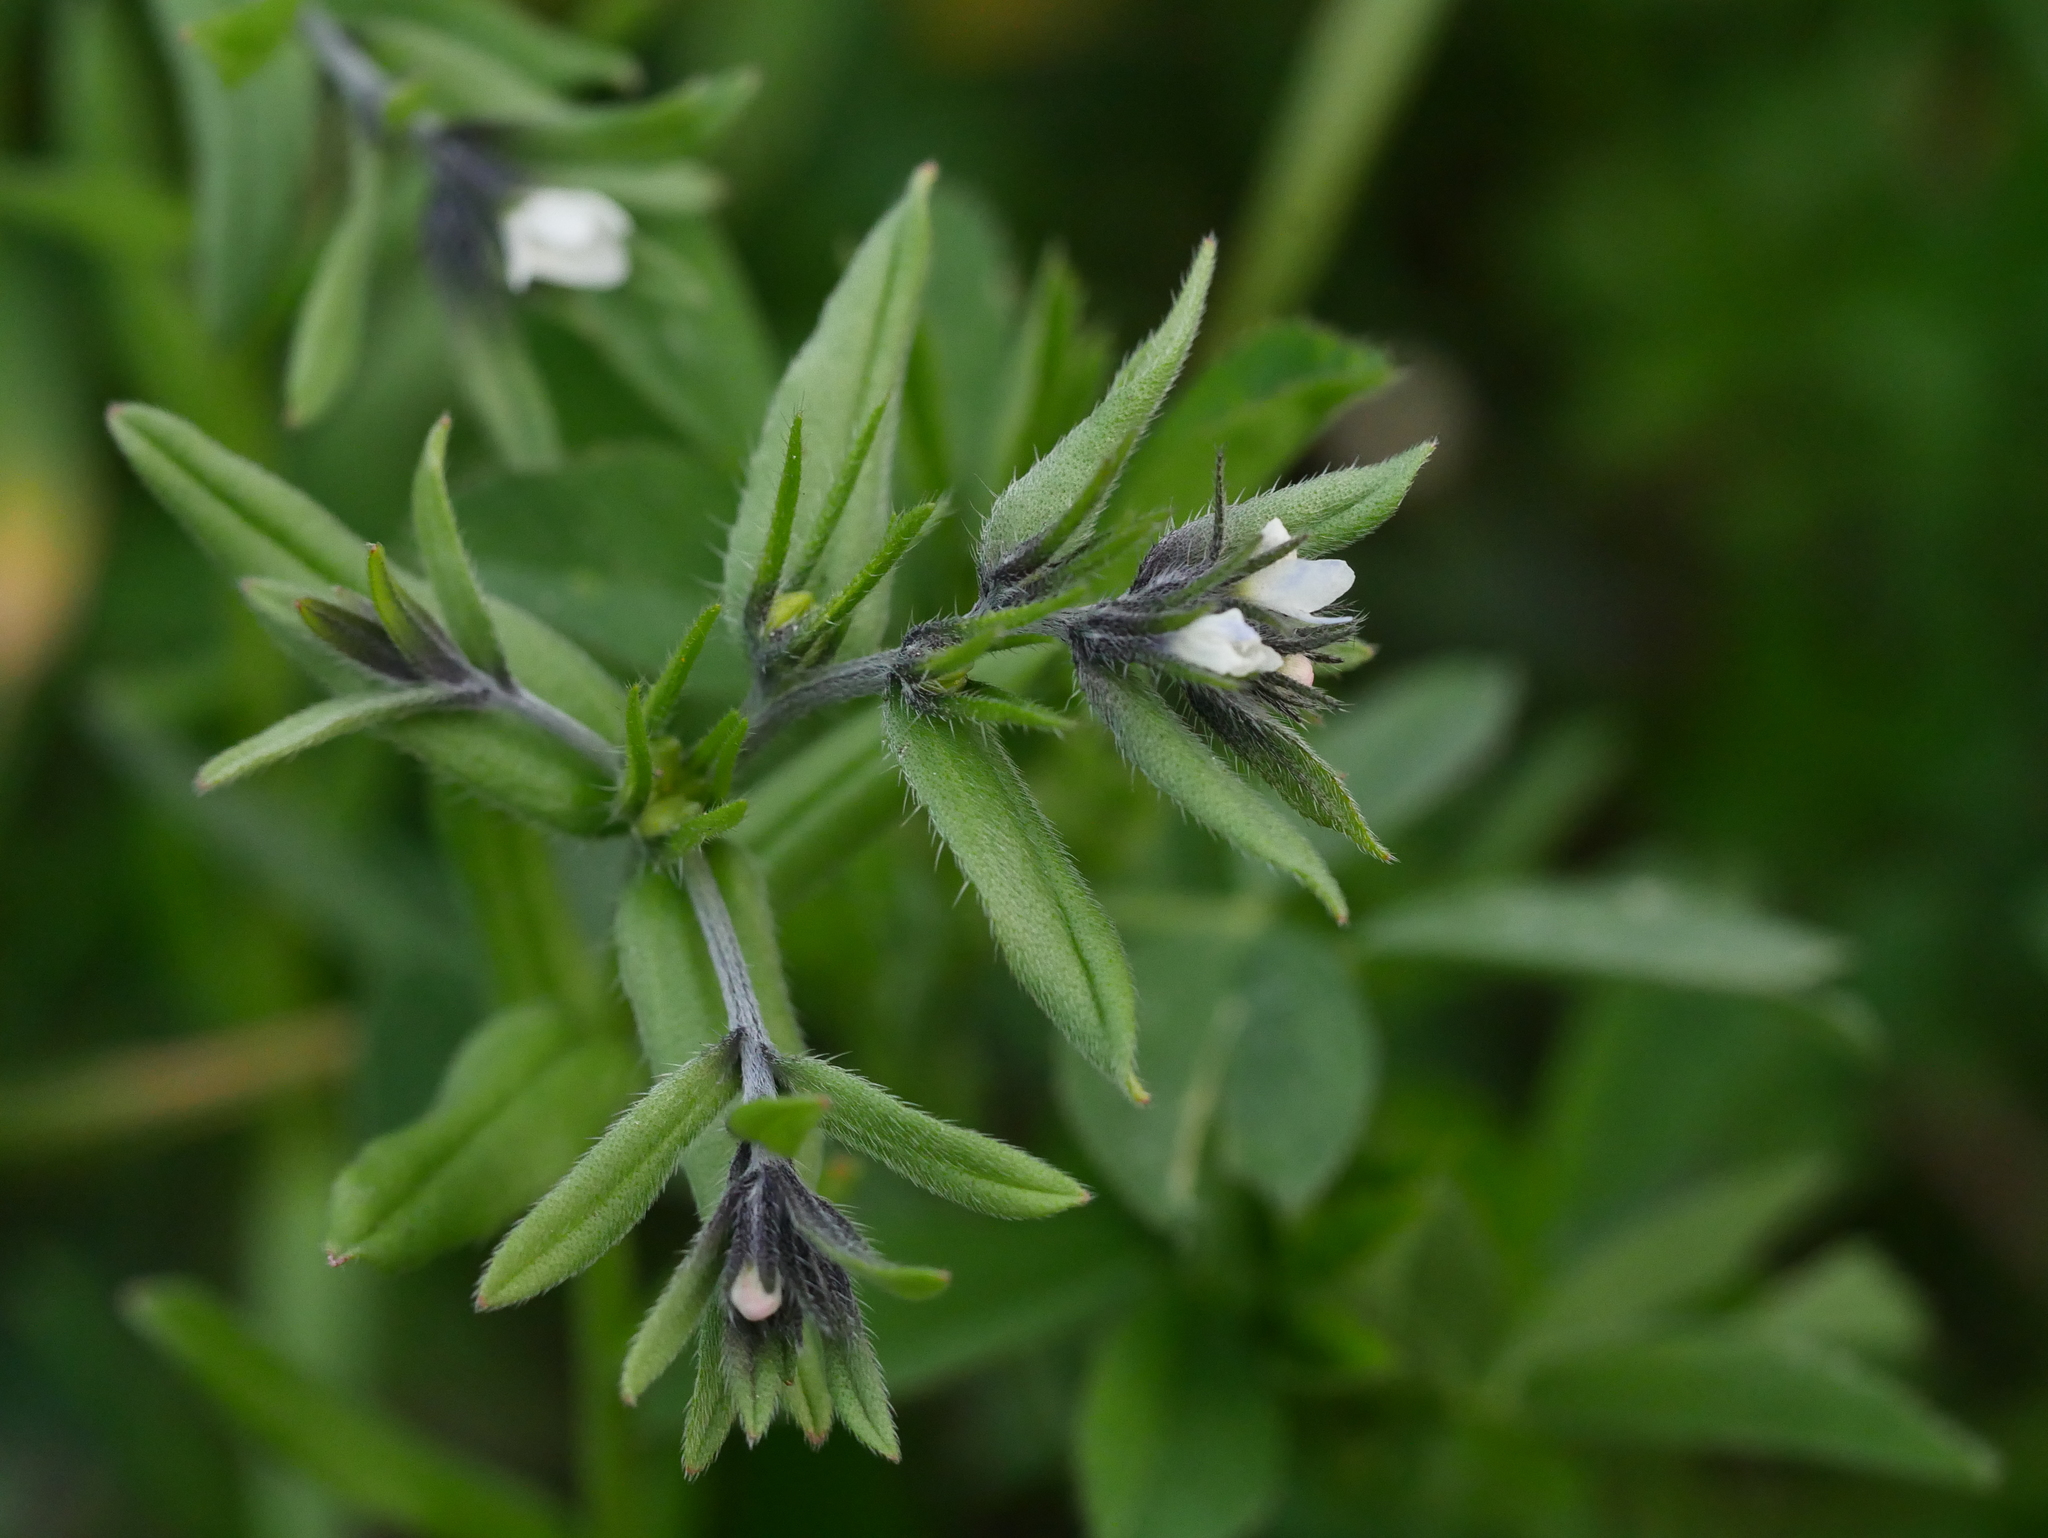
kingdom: Plantae
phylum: Tracheophyta
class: Magnoliopsida
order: Boraginales
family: Boraginaceae
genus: Buglossoides
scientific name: Buglossoides arvensis
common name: Corn gromwell
